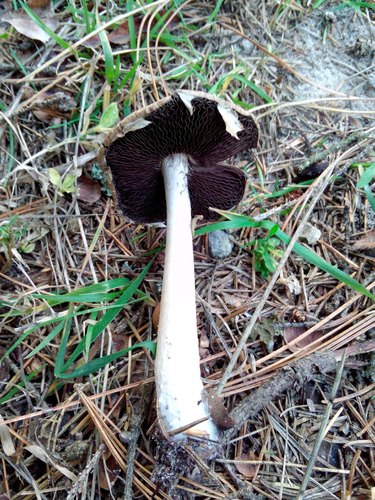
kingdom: Fungi
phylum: Basidiomycota
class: Agaricomycetes
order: Agaricales
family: Agaricaceae
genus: Agaricus
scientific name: Agaricus
